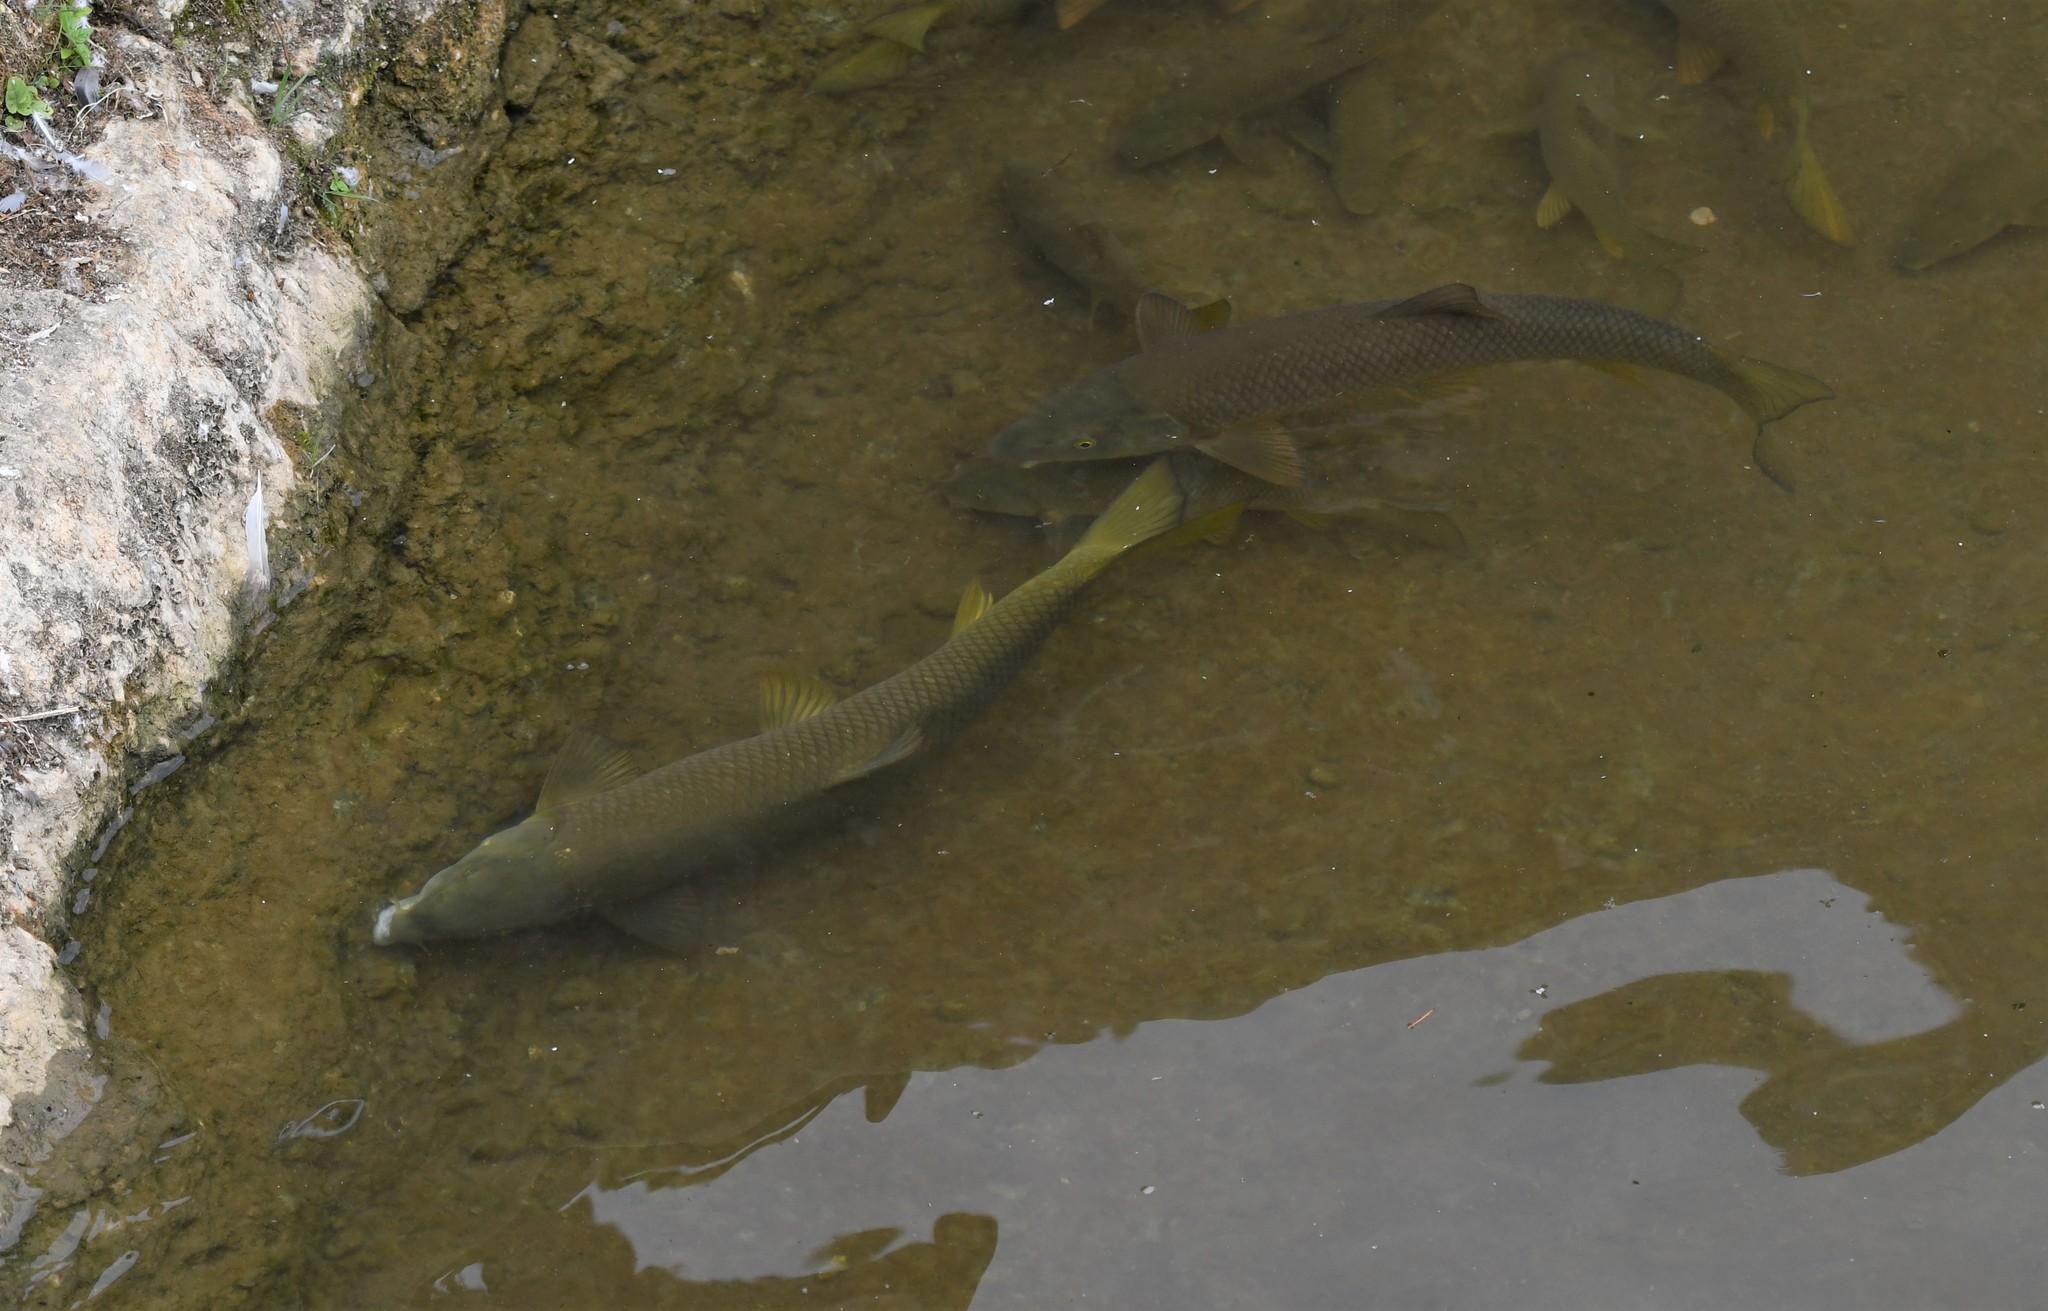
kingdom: Animalia
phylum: Chordata
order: Cypriniformes
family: Cyprinidae
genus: Luciobarbus
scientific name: Luciobarbus bocagei
